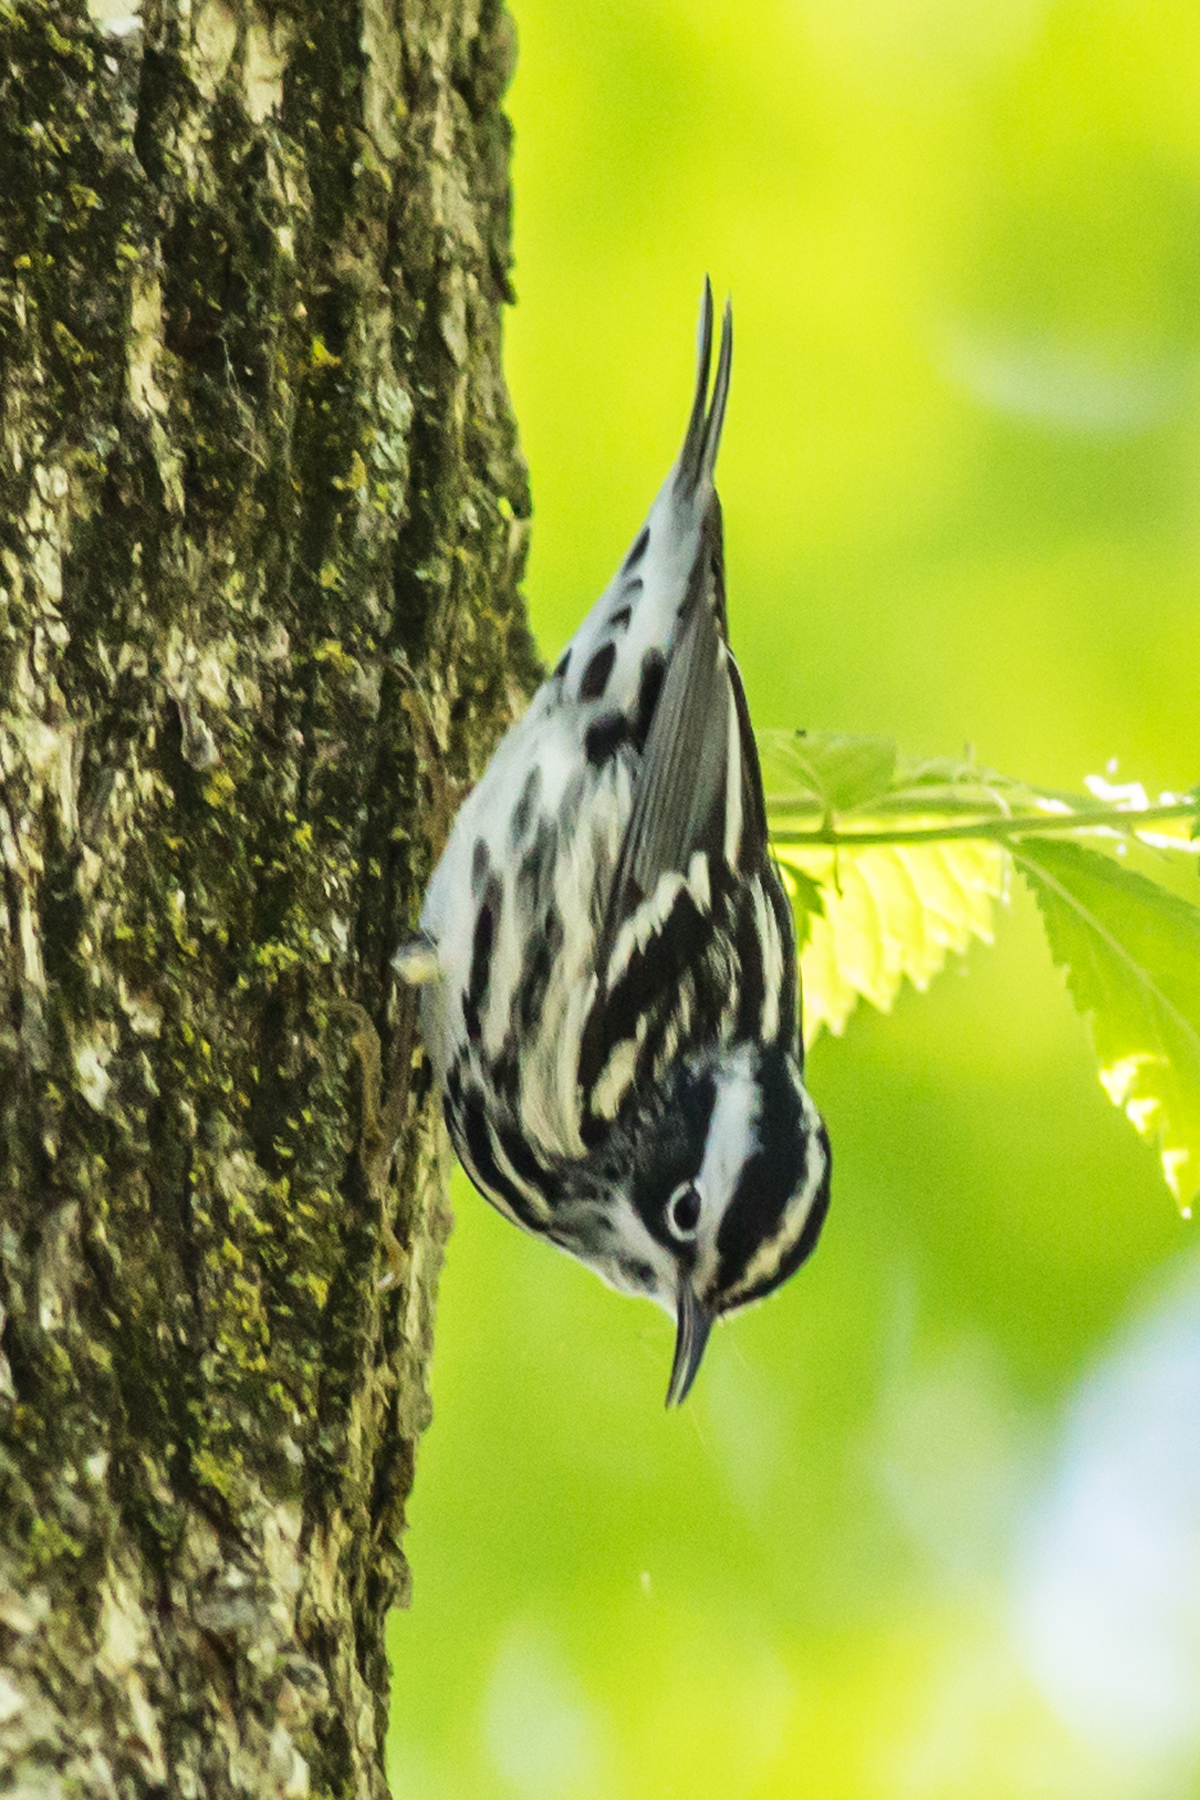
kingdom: Animalia
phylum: Chordata
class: Aves
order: Passeriformes
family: Parulidae
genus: Mniotilta
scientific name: Mniotilta varia
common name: Black-and-white warbler
